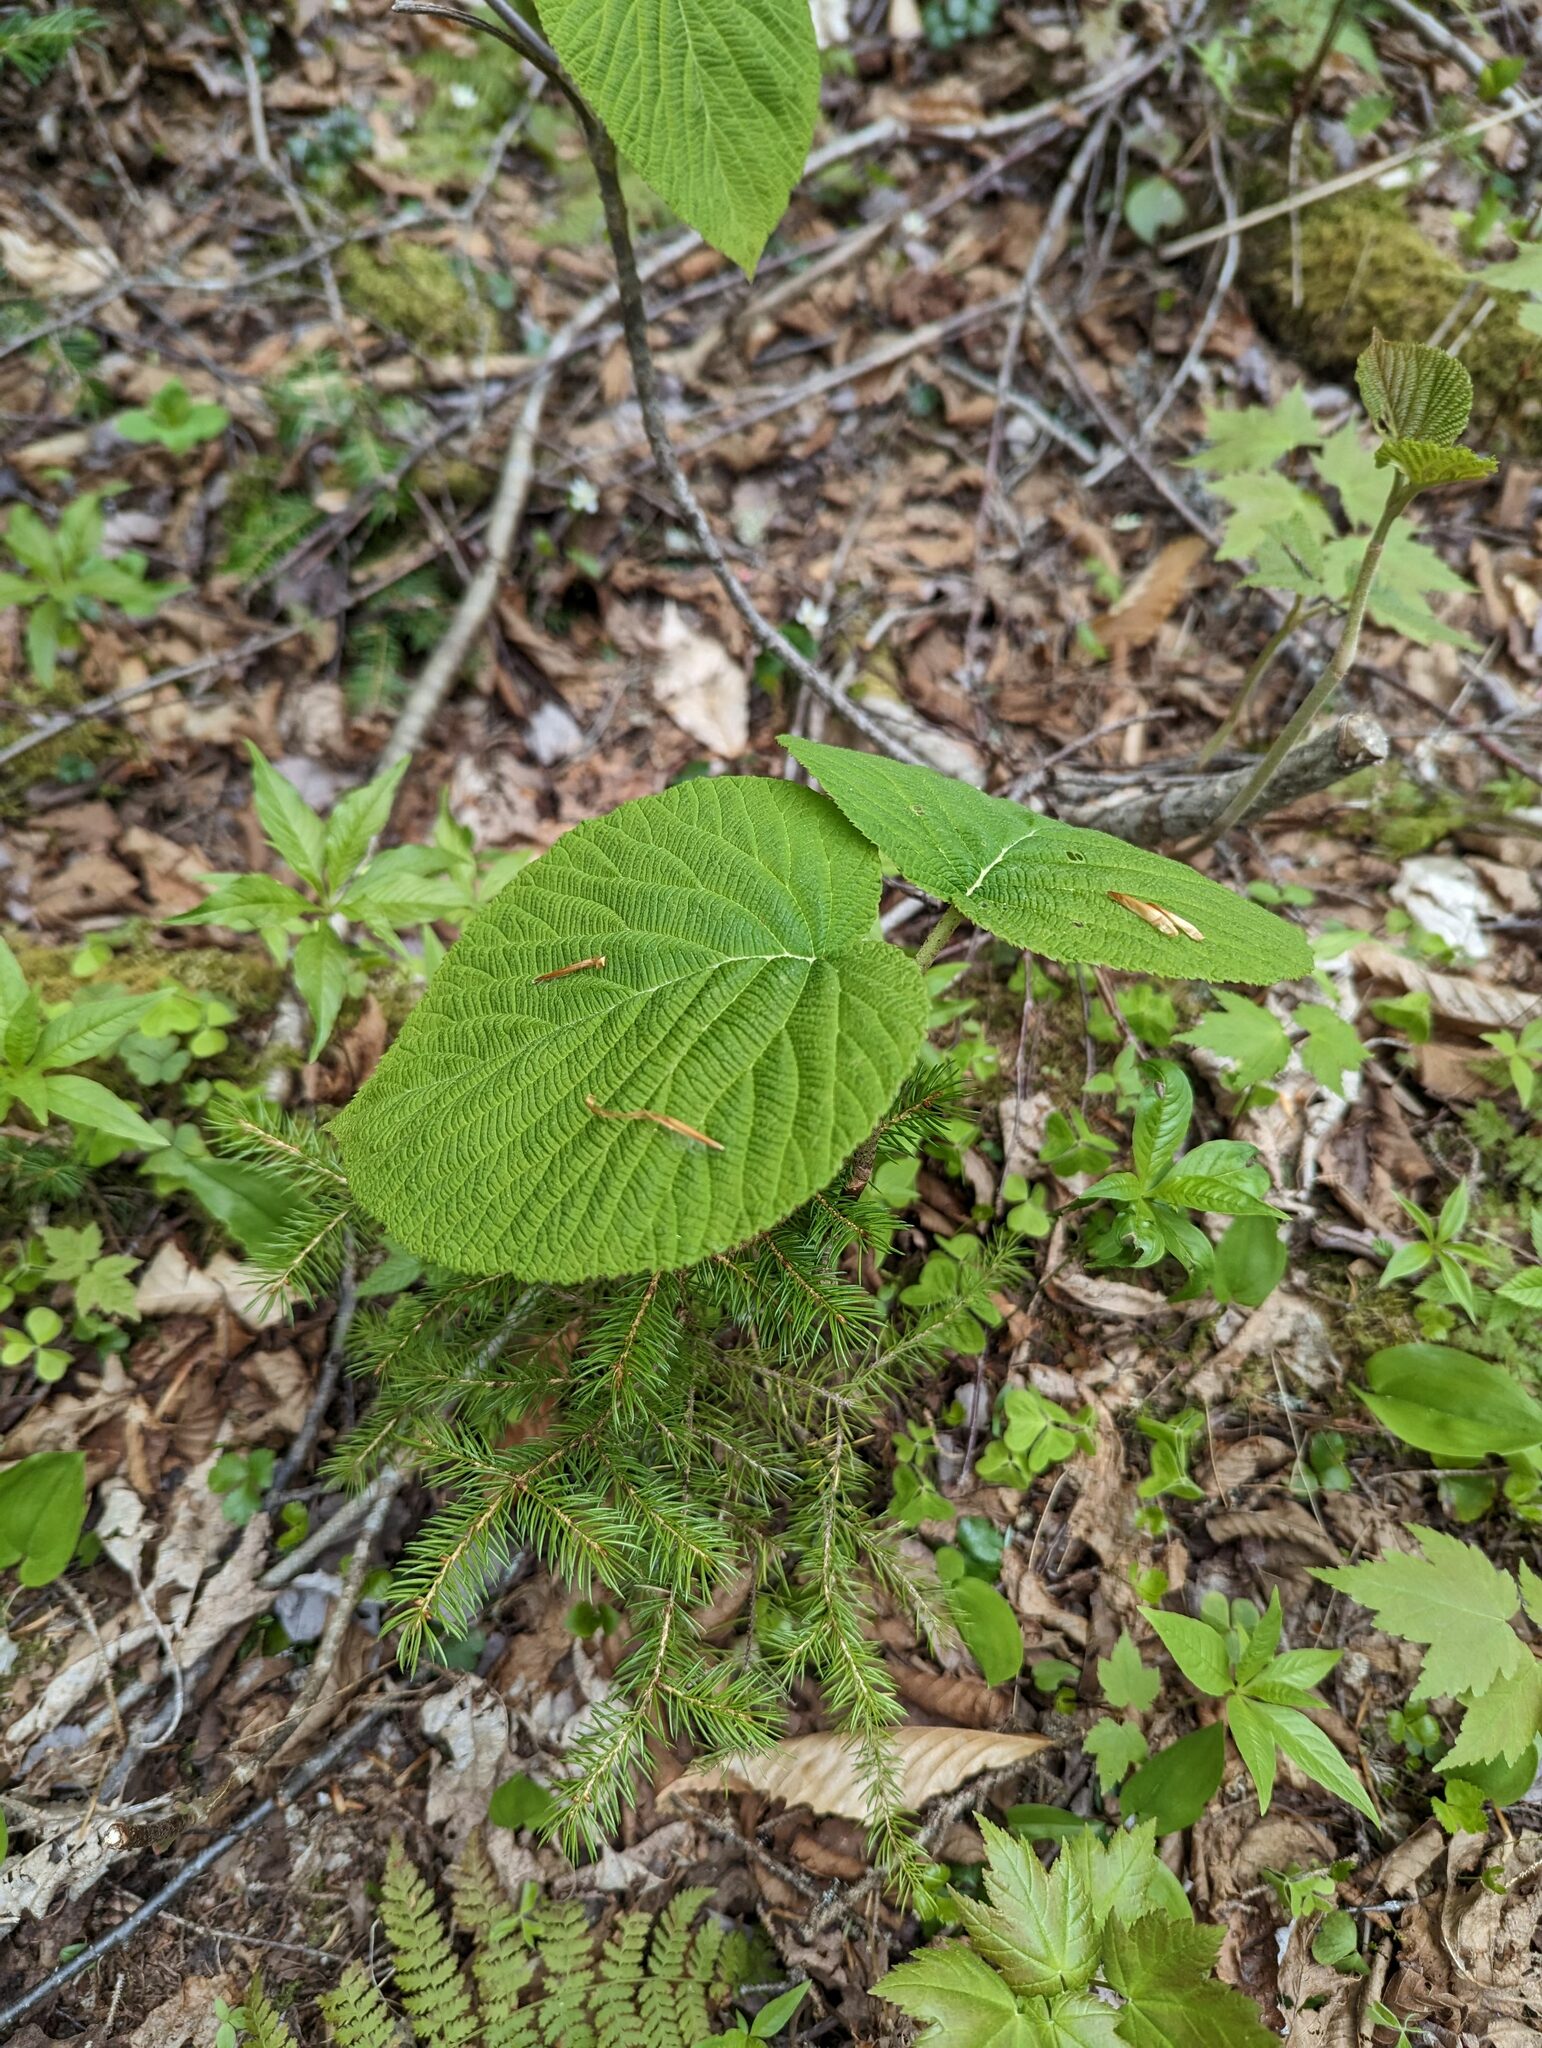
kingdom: Plantae
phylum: Tracheophyta
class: Magnoliopsida
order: Dipsacales
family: Viburnaceae
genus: Viburnum
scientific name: Viburnum lantanoides
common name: Hobblebush
